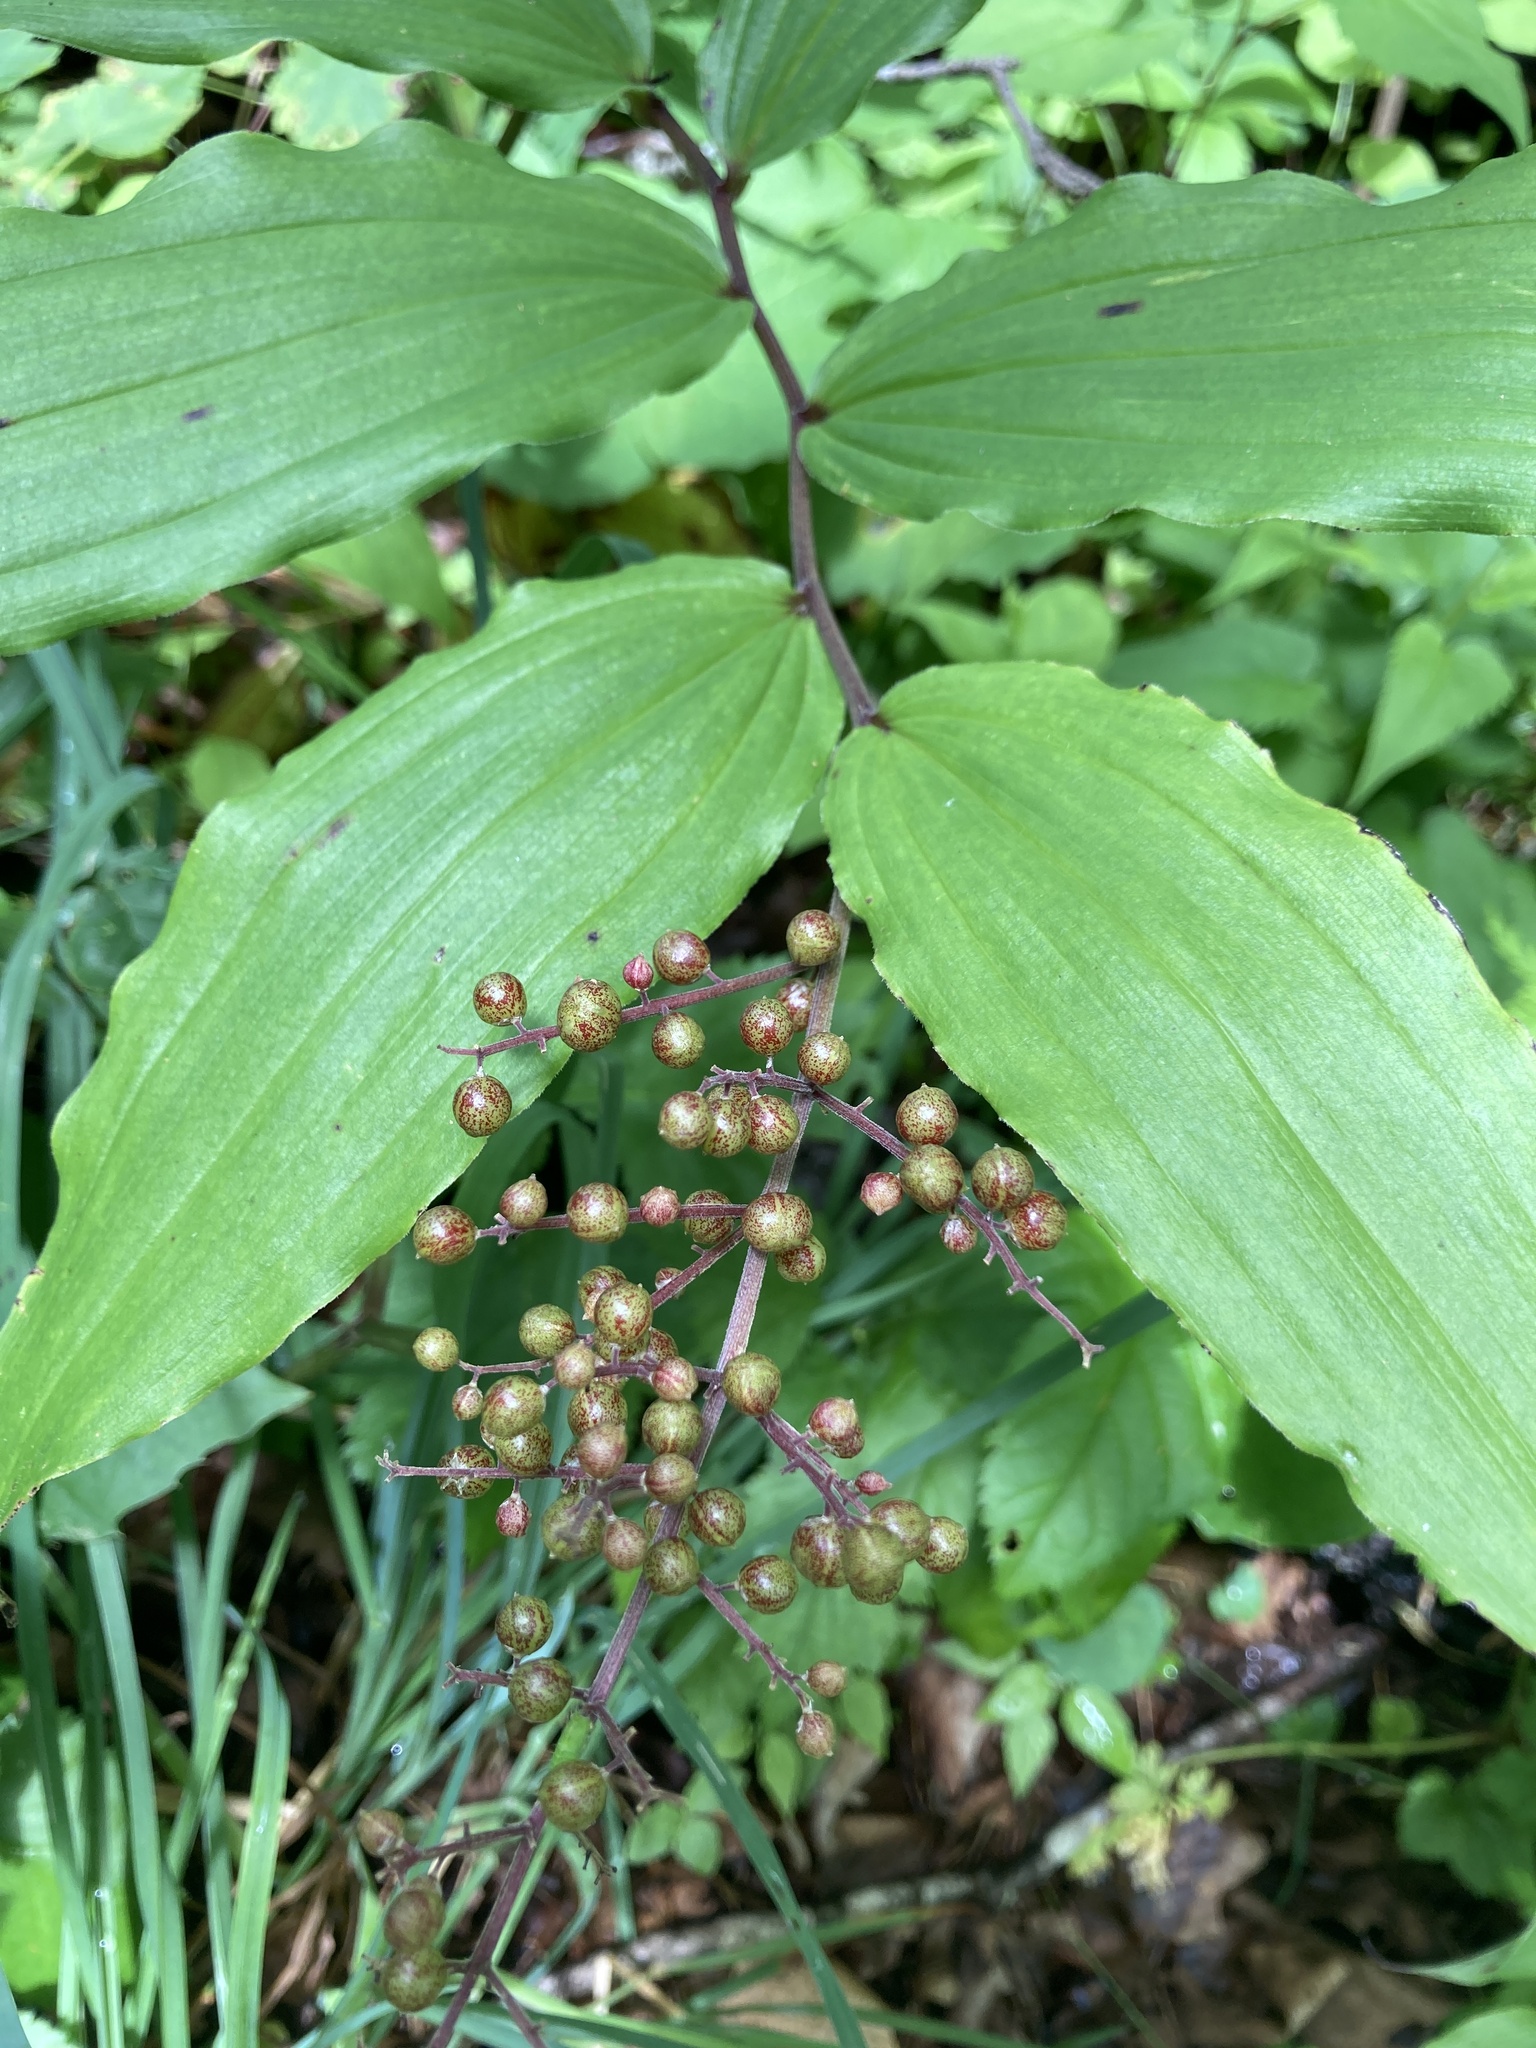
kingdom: Plantae
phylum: Tracheophyta
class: Liliopsida
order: Asparagales
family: Asparagaceae
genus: Maianthemum
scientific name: Maianthemum racemosum
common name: False spikenard
